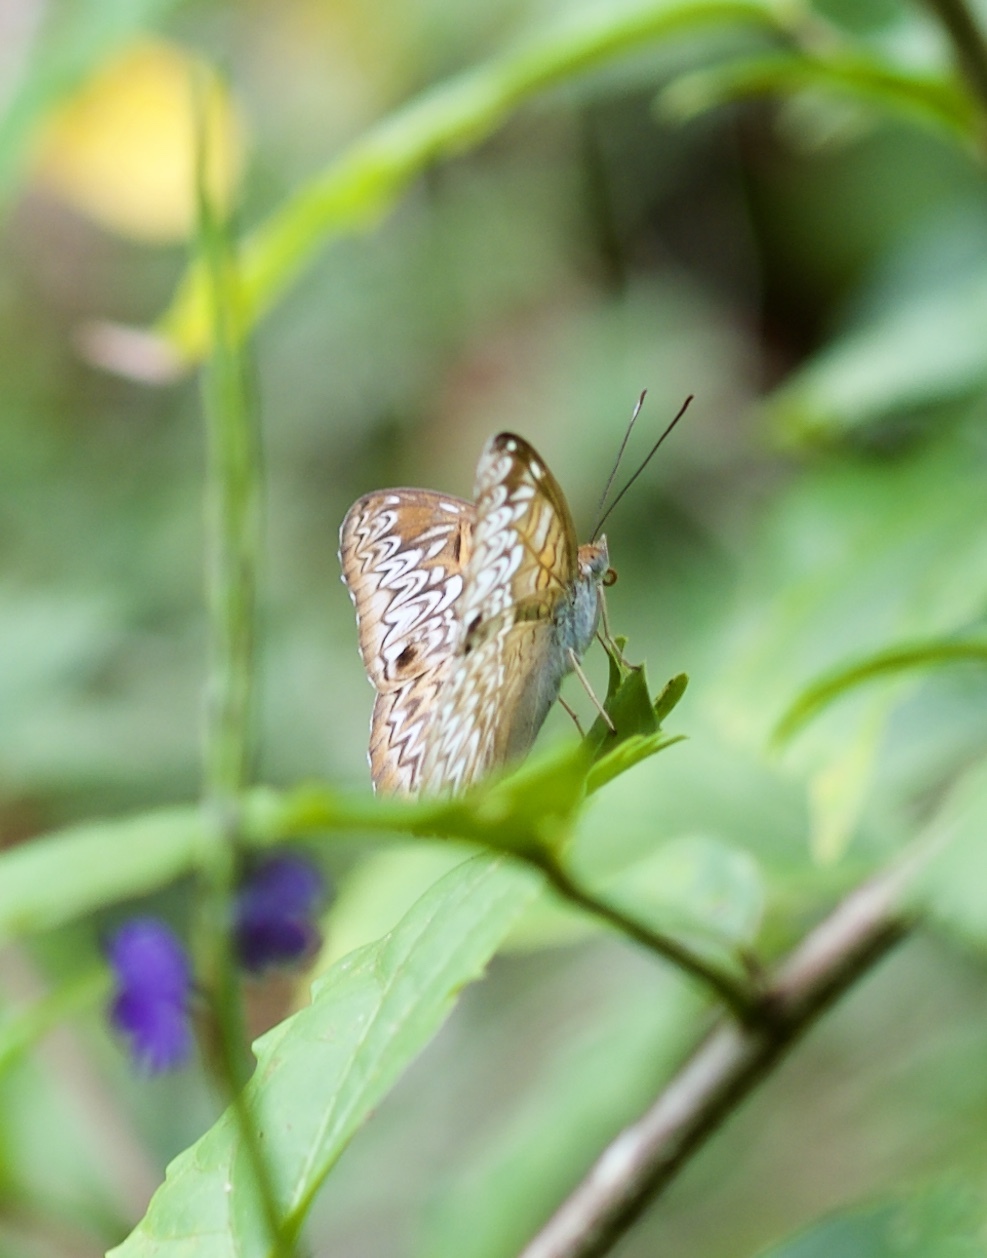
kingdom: Animalia
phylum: Arthropoda
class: Insecta
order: Lepidoptera
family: Nymphalidae
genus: Lebadea
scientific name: Lebadea martha
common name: Knight
